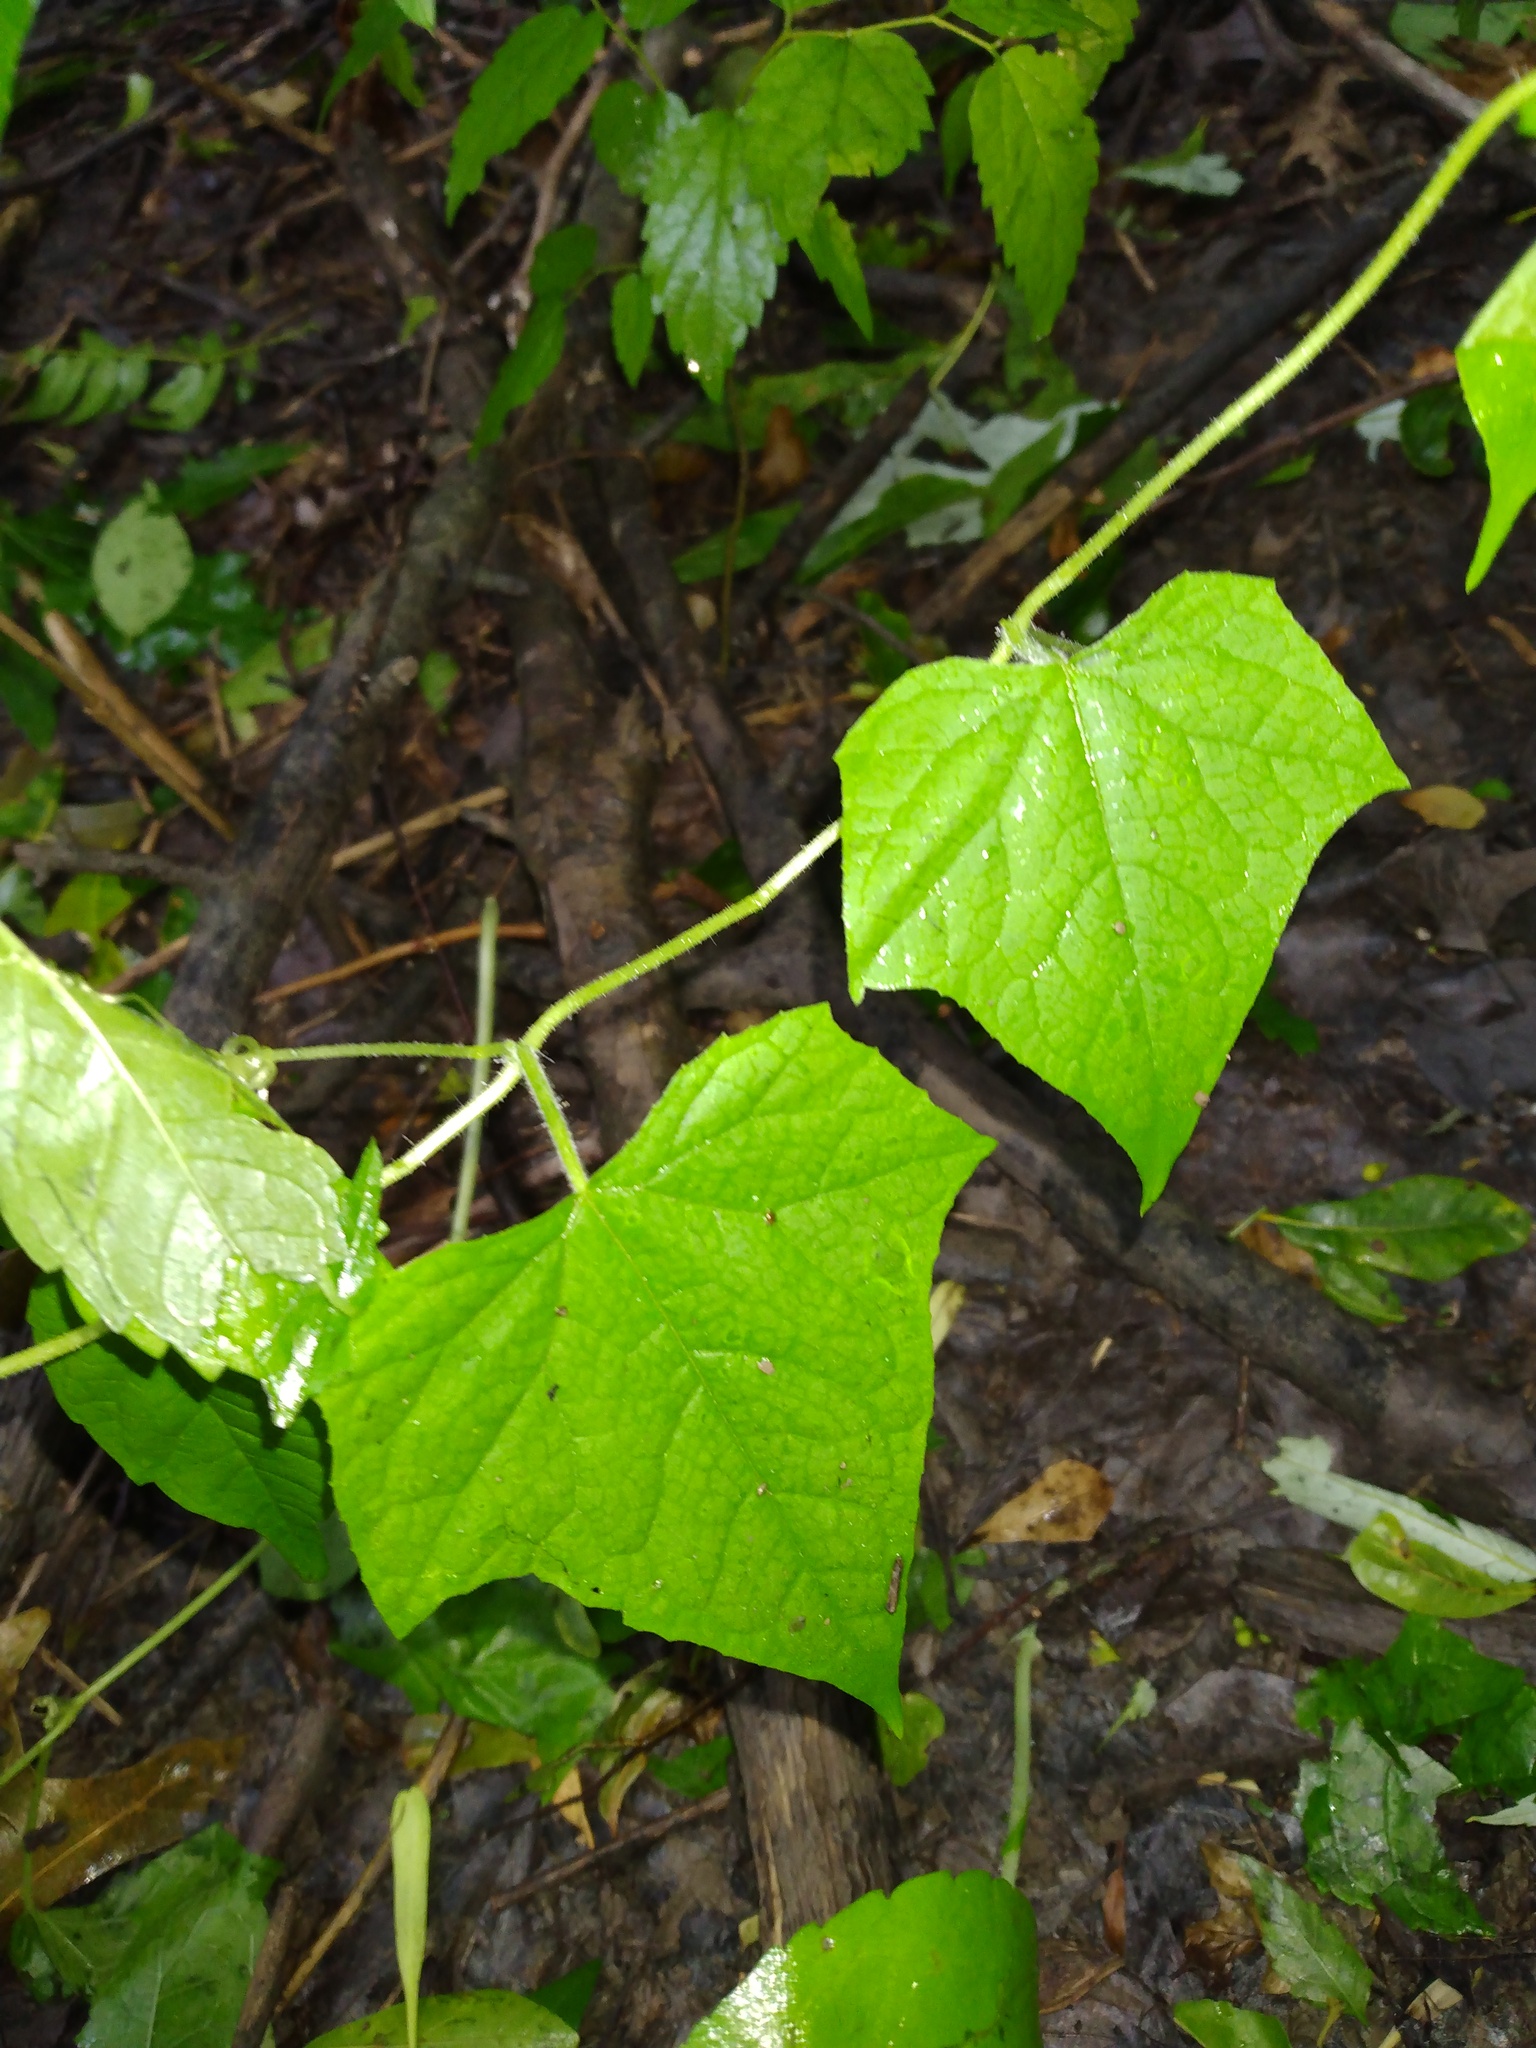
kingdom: Plantae
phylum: Tracheophyta
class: Magnoliopsida
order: Cucurbitales
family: Cucurbitaceae
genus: Sicyos
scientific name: Sicyos angulatus
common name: Angled burr cucumber
